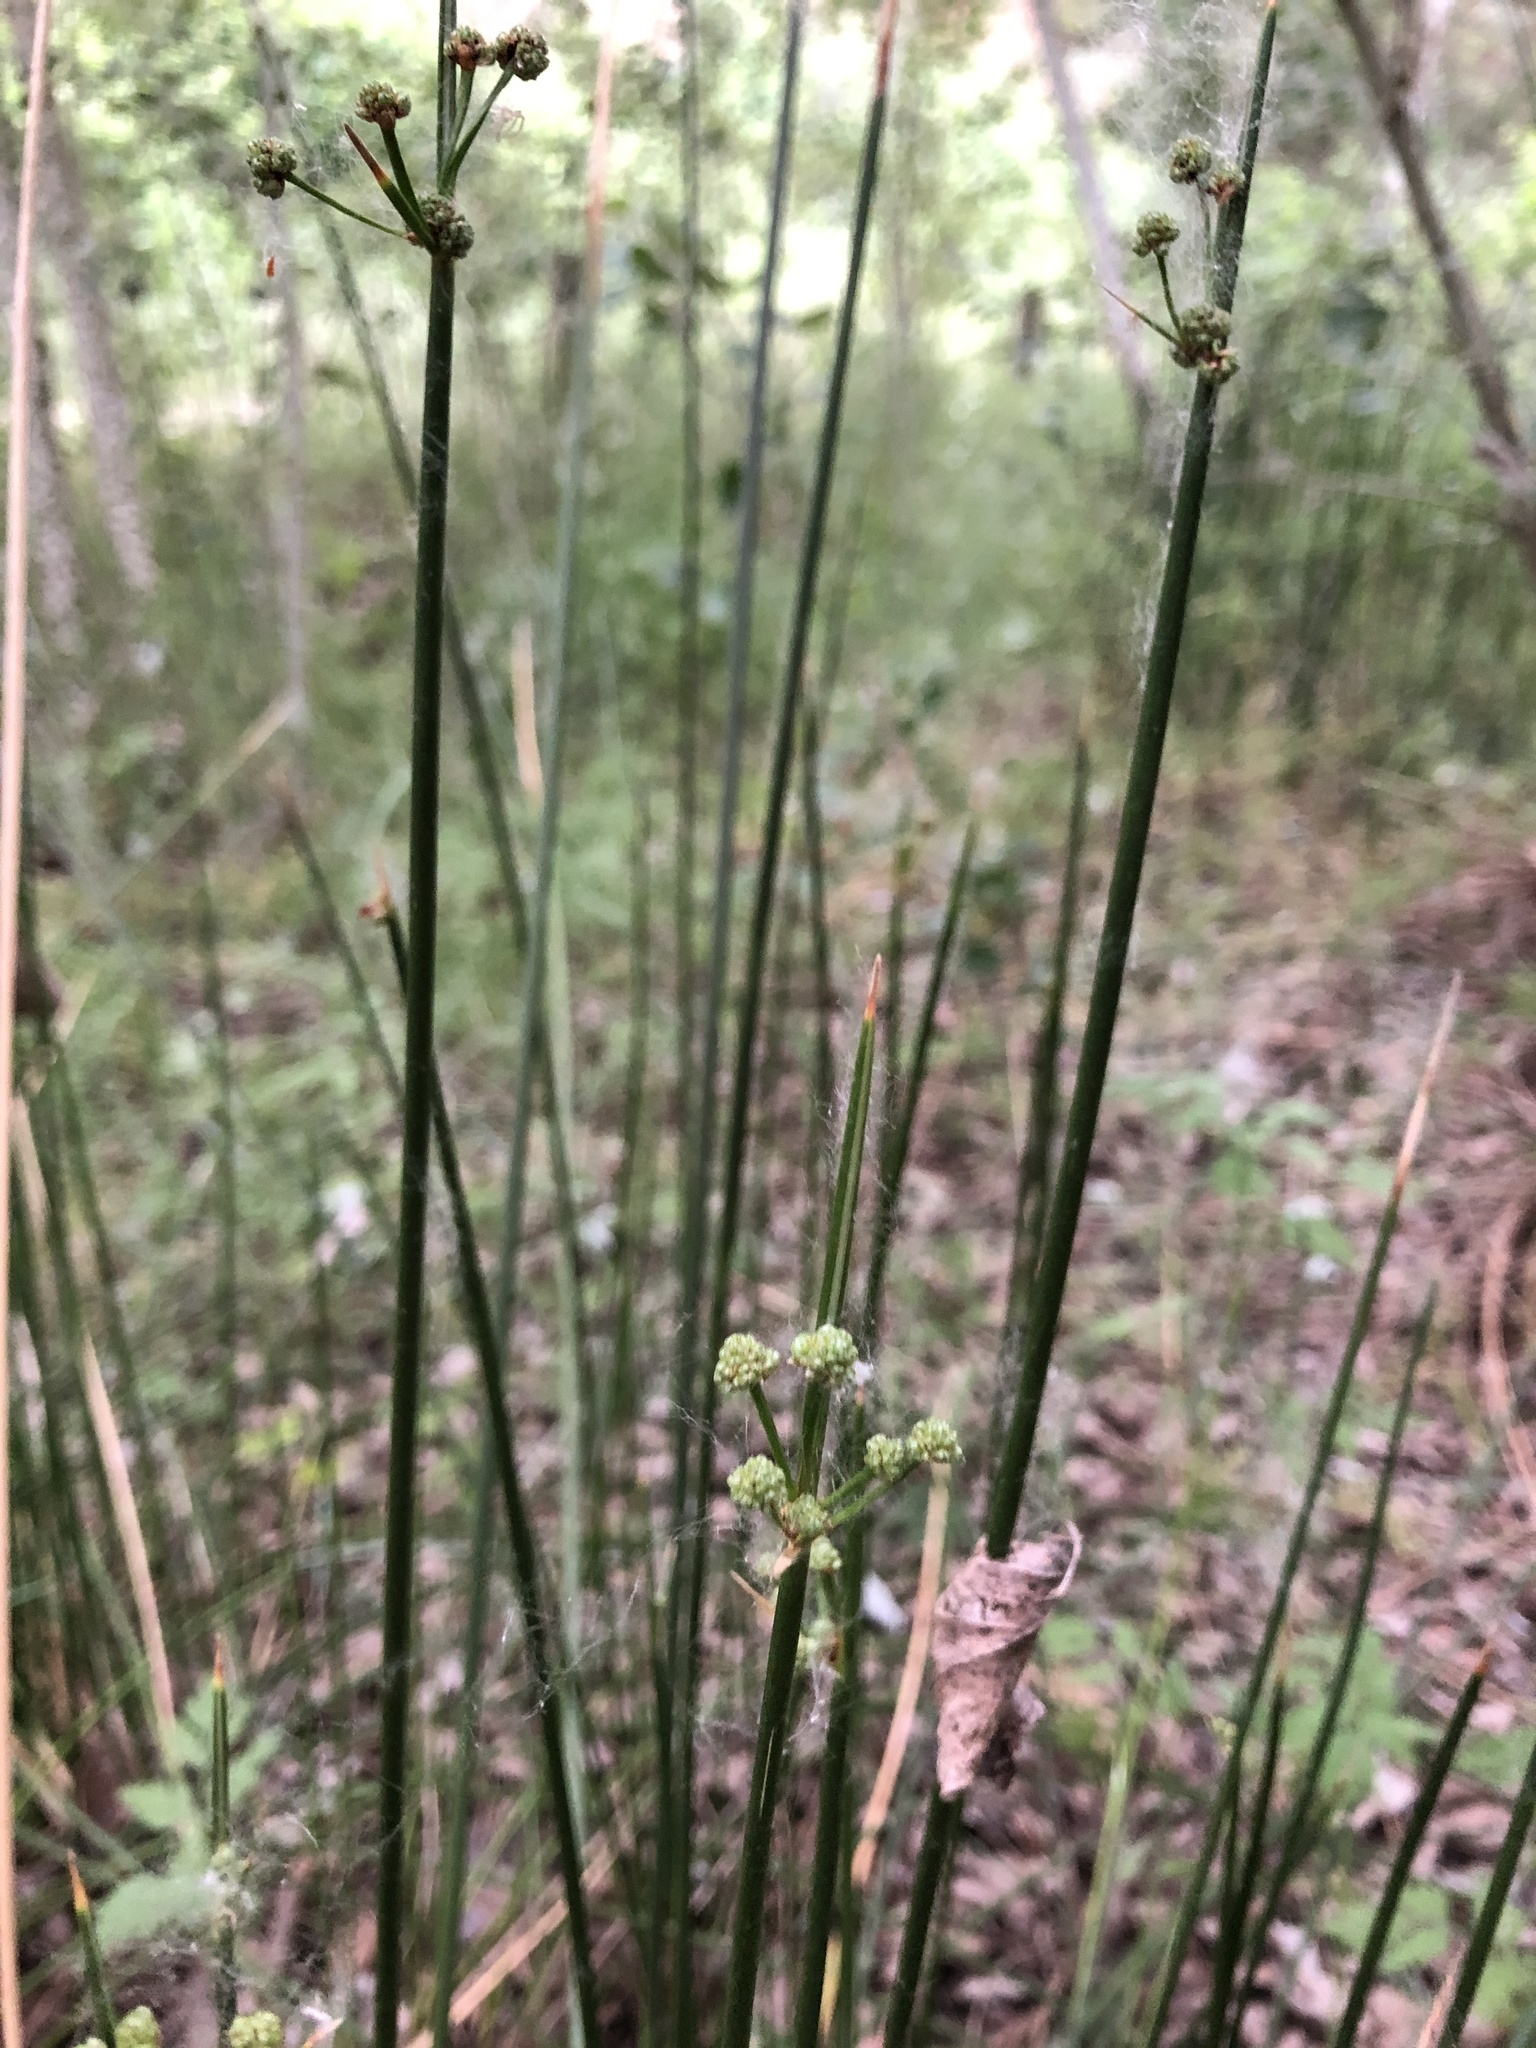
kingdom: Plantae
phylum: Tracheophyta
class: Liliopsida
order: Poales
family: Cyperaceae
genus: Scirpoides
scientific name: Scirpoides holoschoenus
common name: Round-headed club-rush
